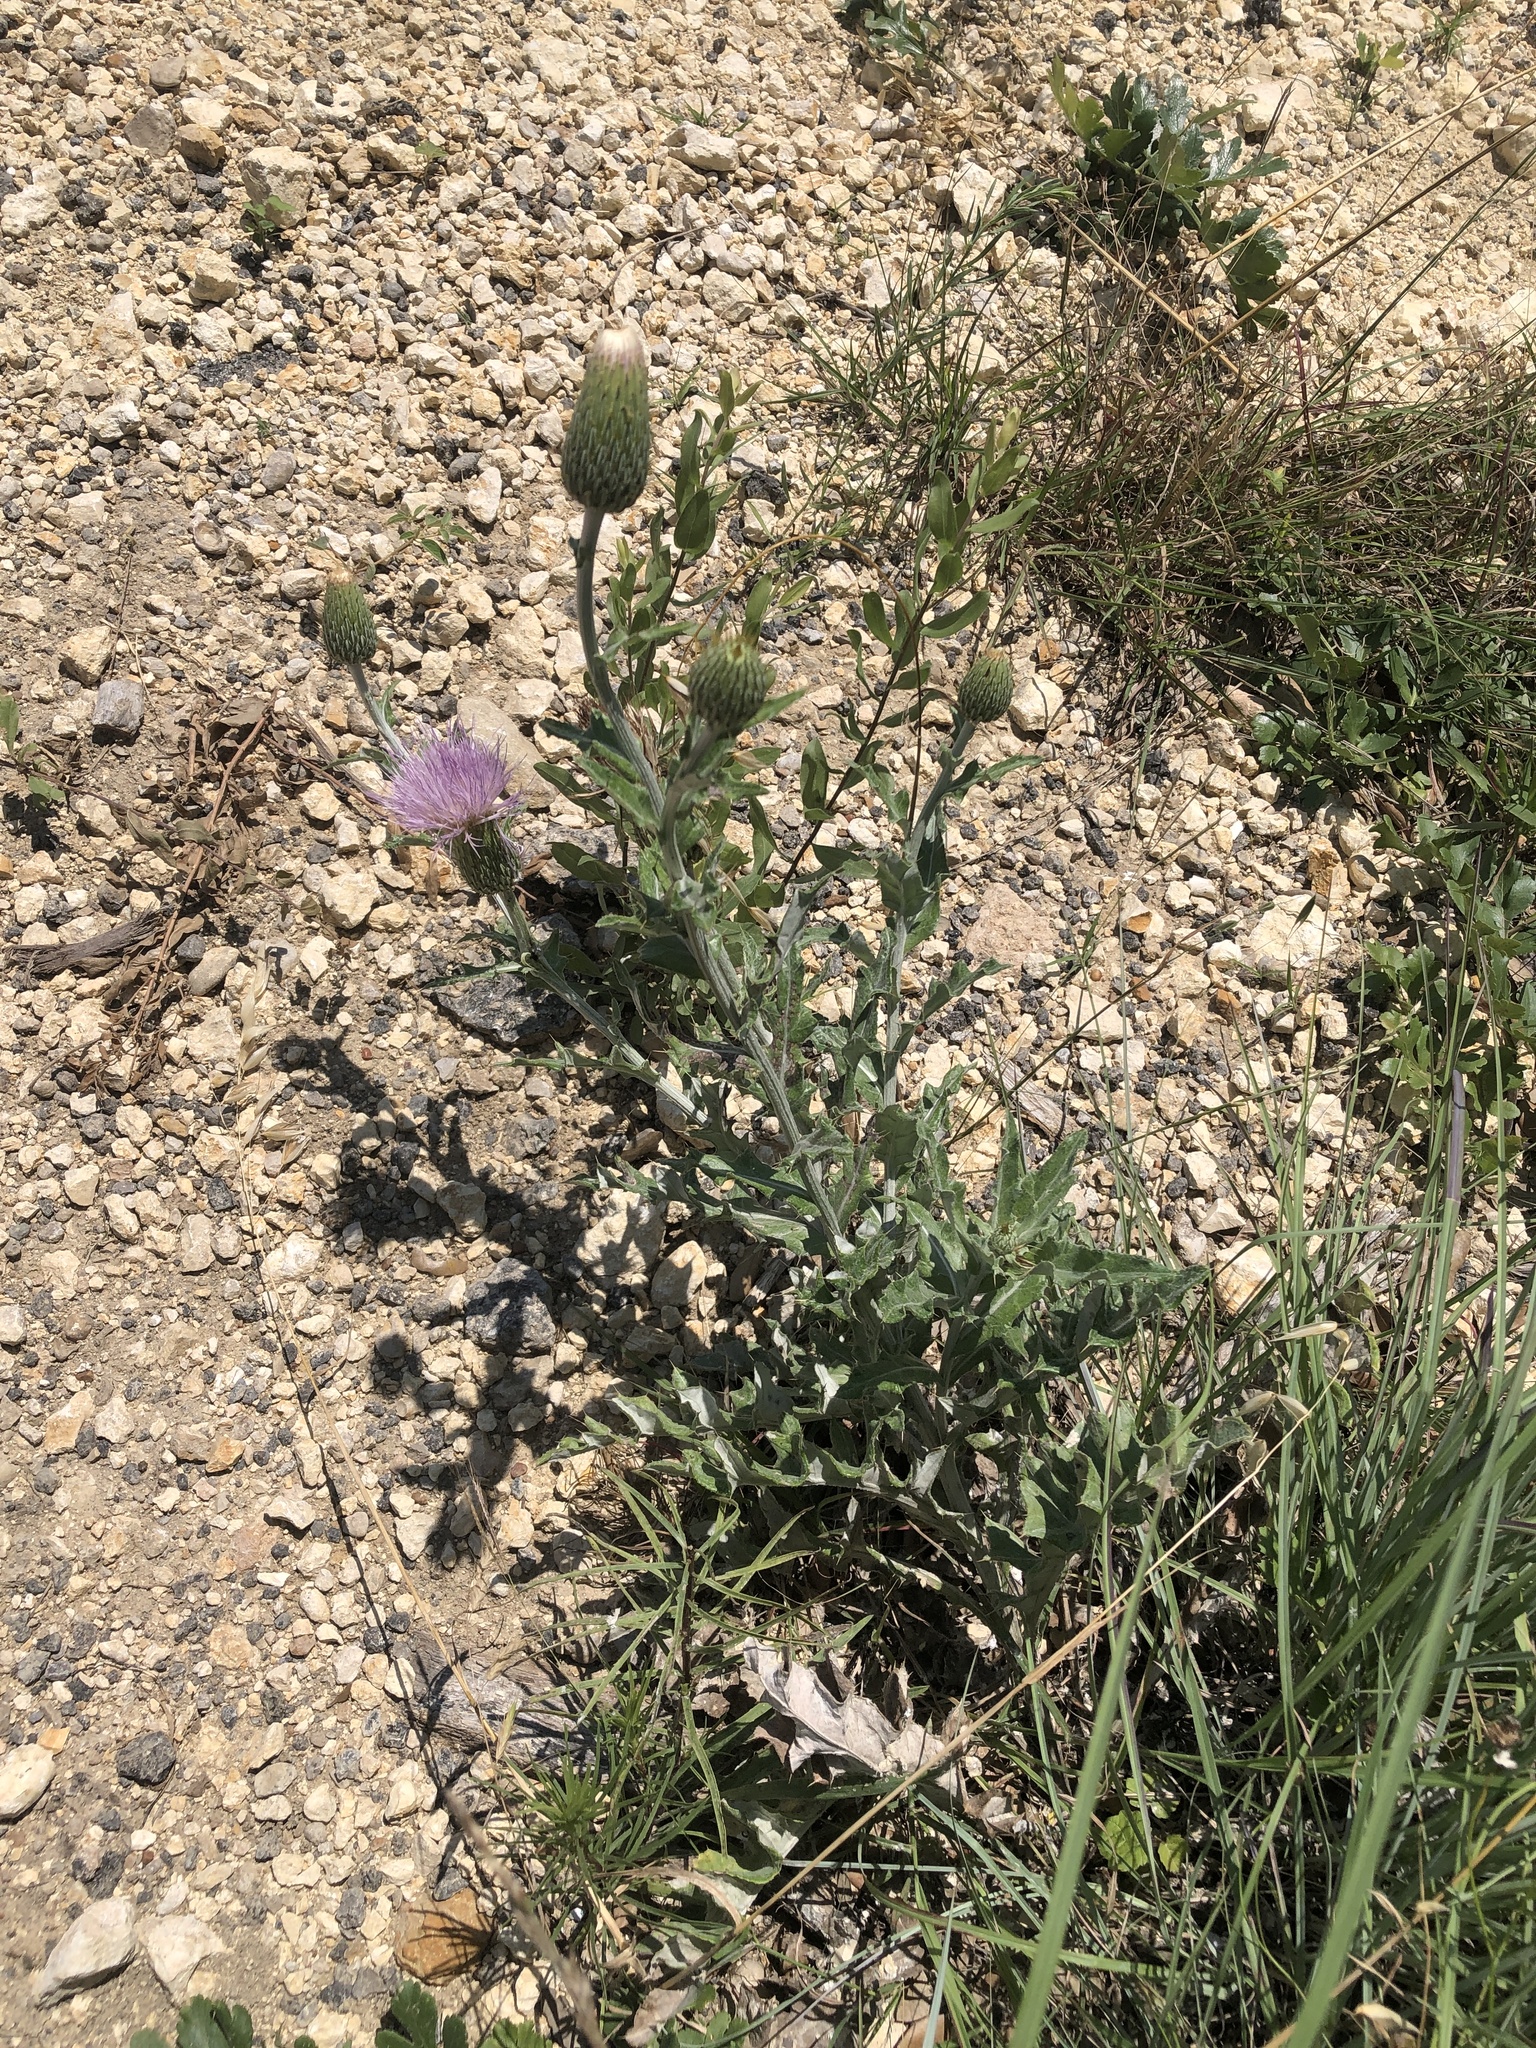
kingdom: Plantae
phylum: Tracheophyta
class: Magnoliopsida
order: Asterales
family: Asteraceae
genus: Cirsium
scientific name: Cirsium undulatum
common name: Pasture thistle
